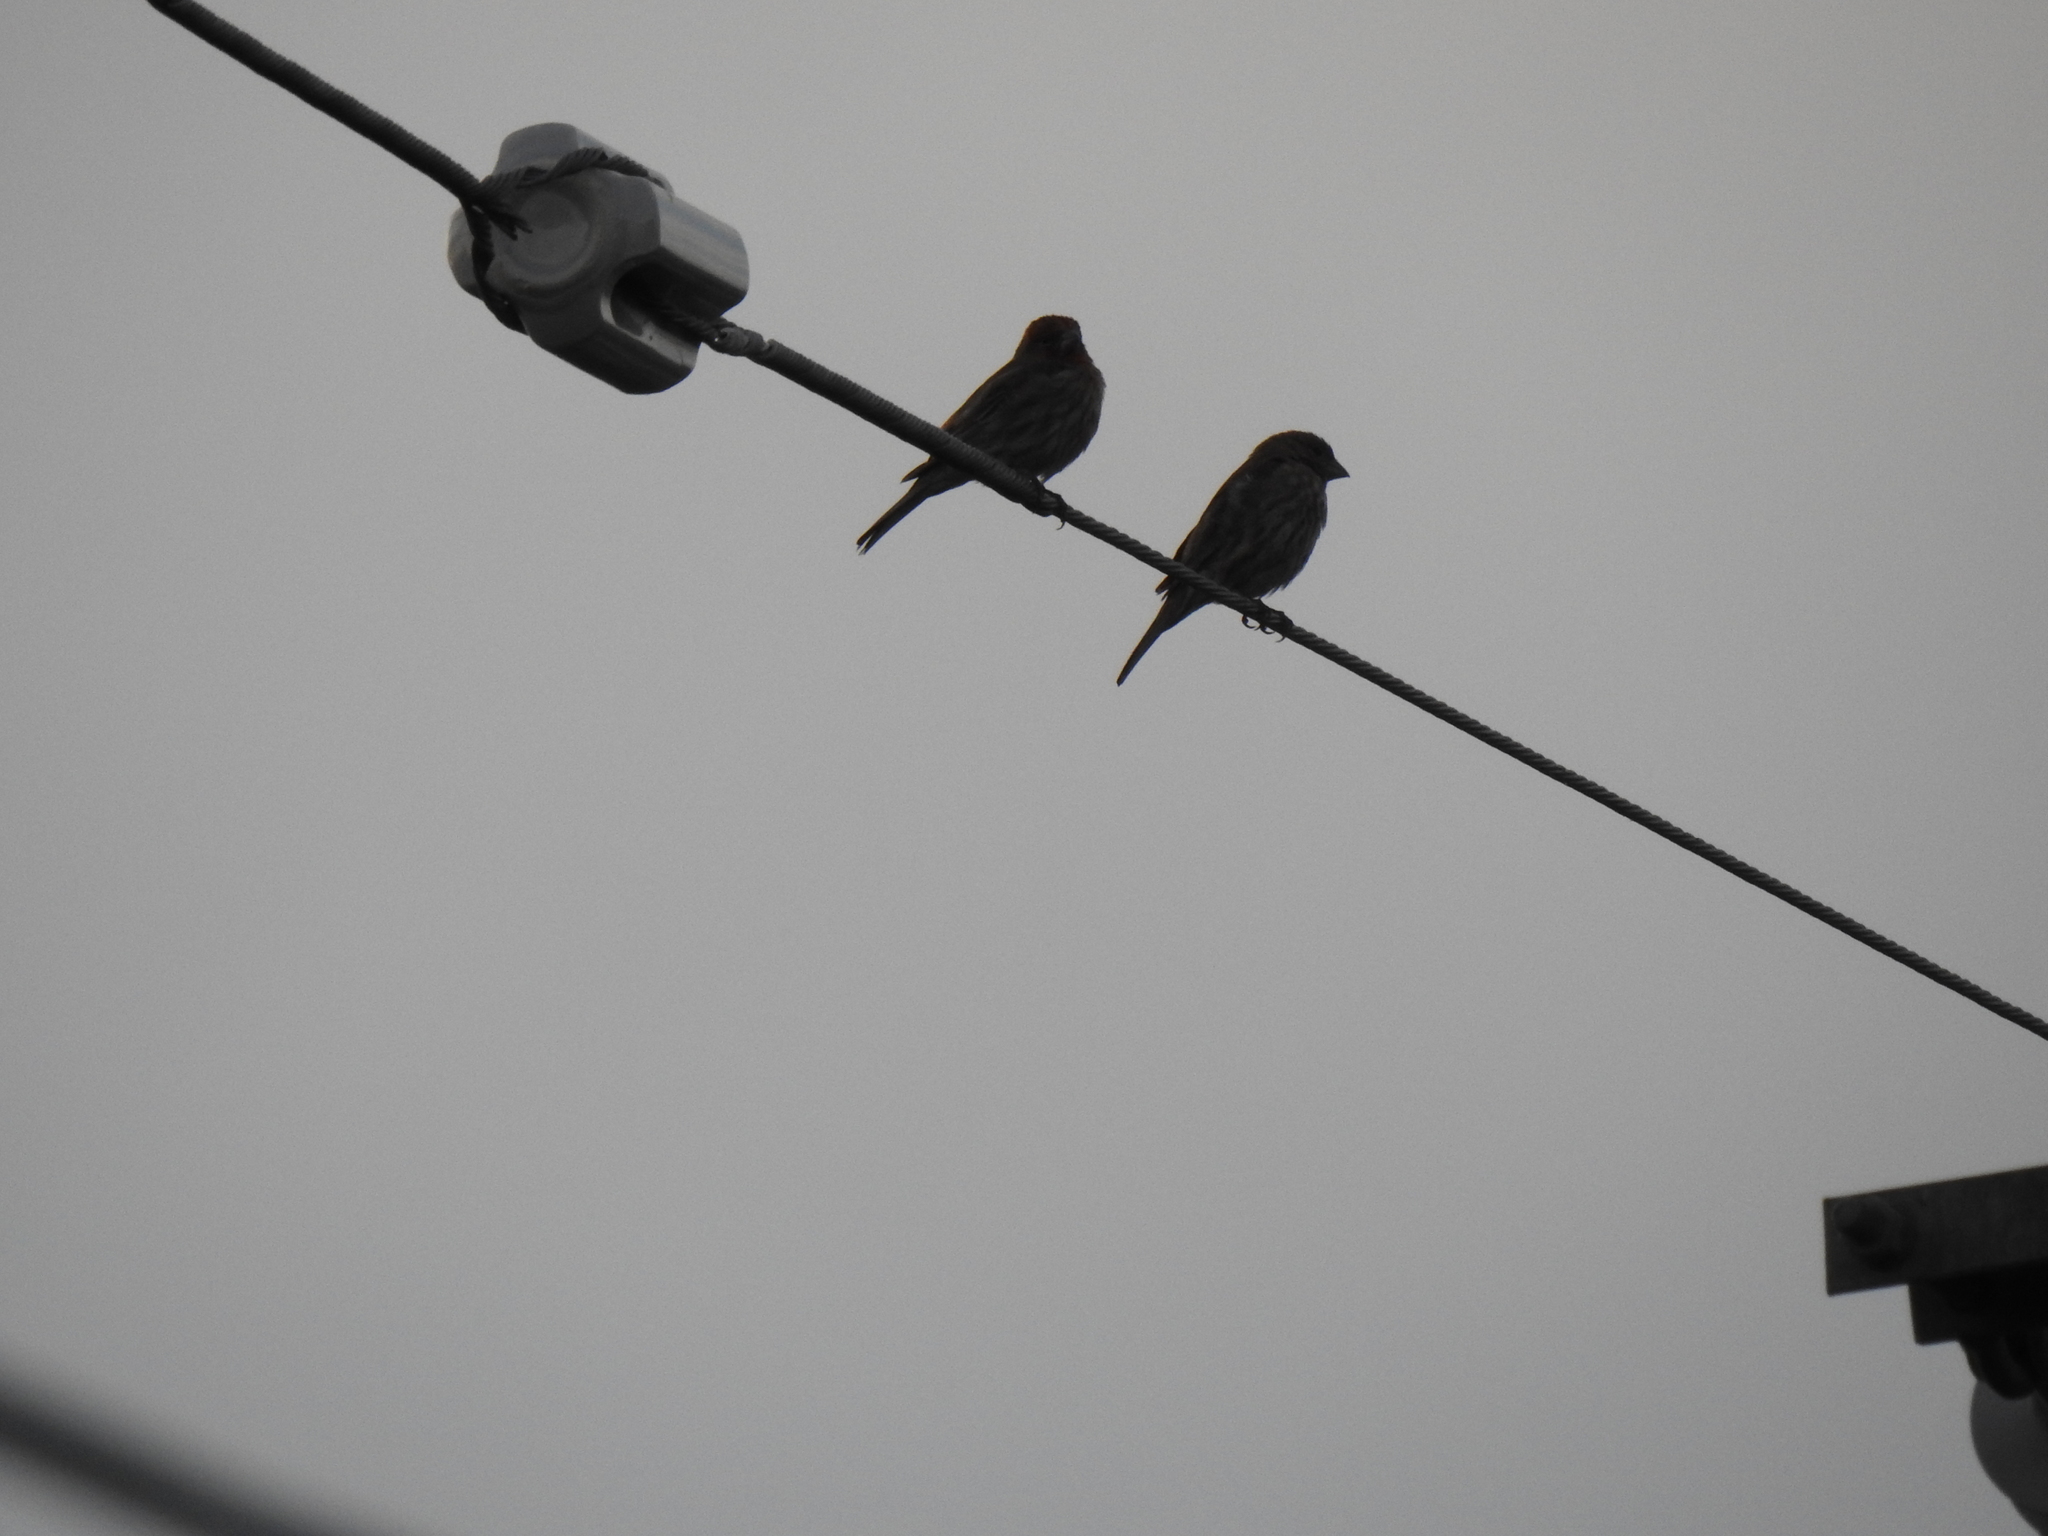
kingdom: Animalia
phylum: Chordata
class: Aves
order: Passeriformes
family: Fringillidae
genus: Haemorhous
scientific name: Haemorhous mexicanus
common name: House finch
